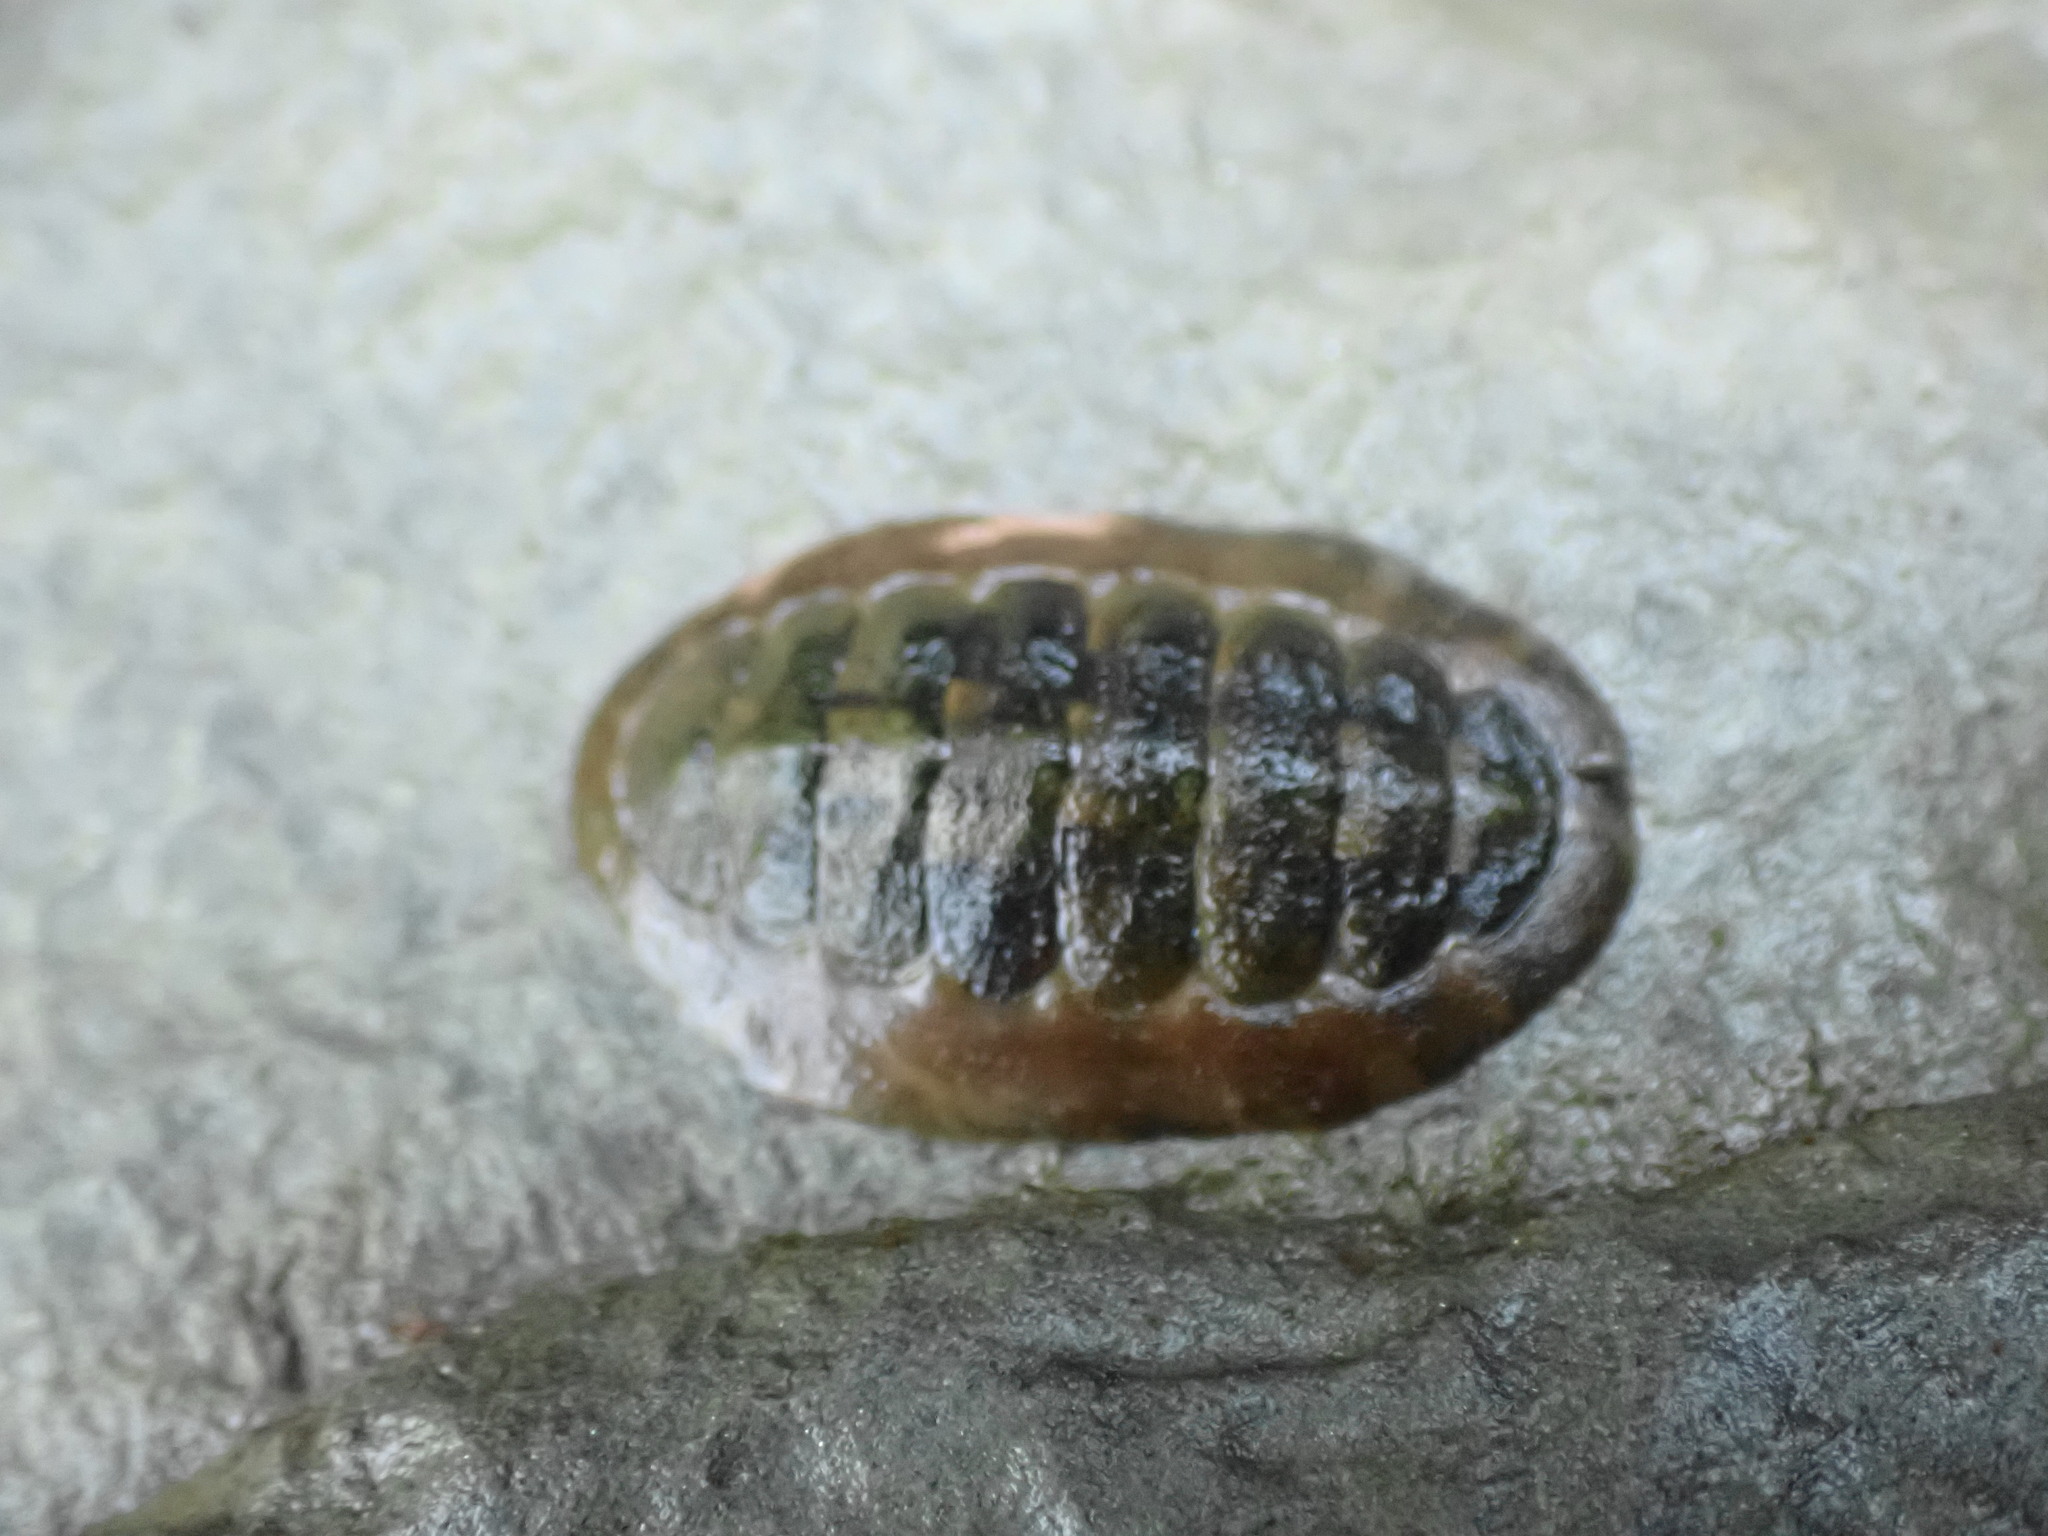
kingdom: Animalia
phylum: Mollusca
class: Polyplacophora
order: Chitonida
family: Tonicellidae
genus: Cyanoplax
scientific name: Cyanoplax hartwegii
